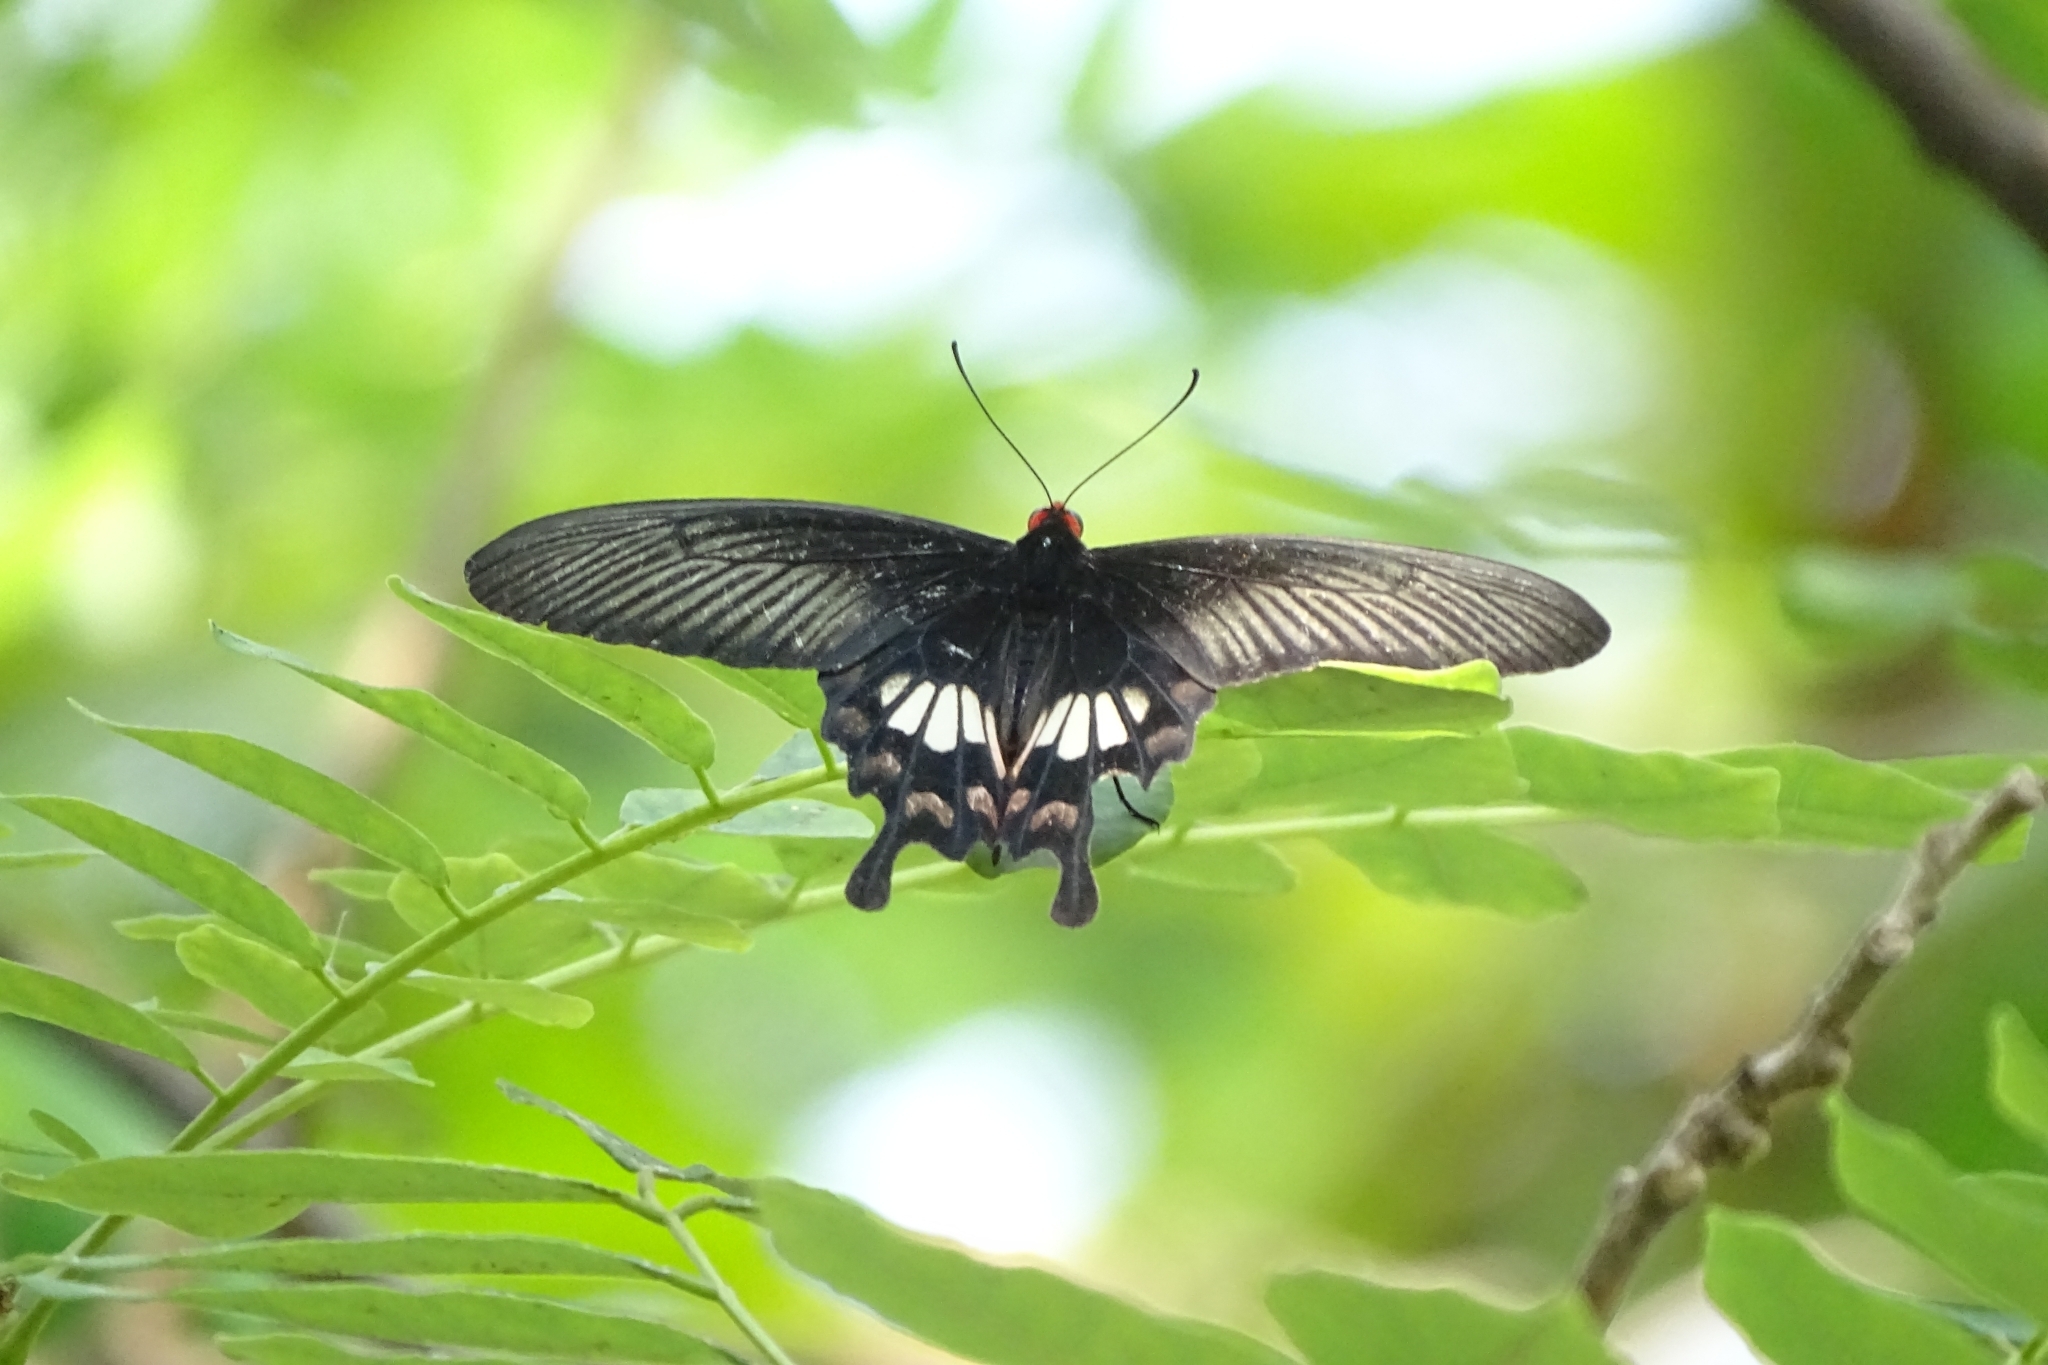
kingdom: Animalia
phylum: Arthropoda
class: Insecta
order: Lepidoptera
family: Papilionidae
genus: Pachliopta
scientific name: Pachliopta aristolochiae
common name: Common rose
